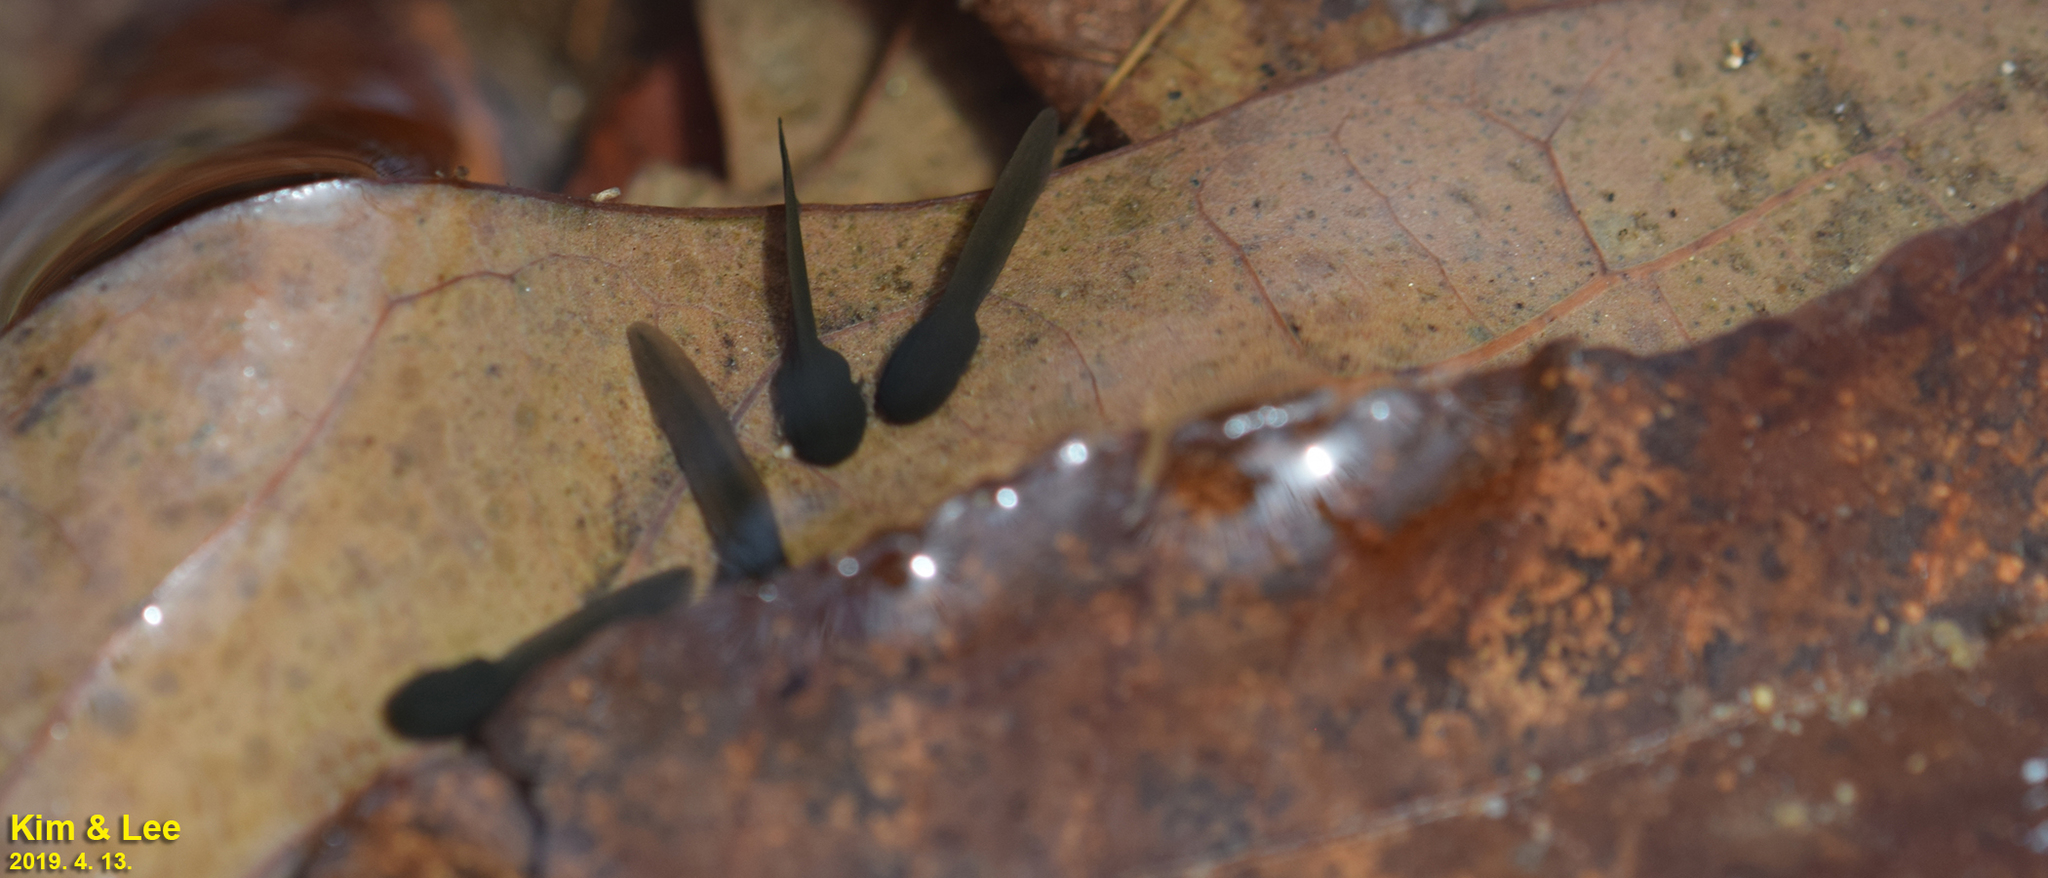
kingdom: Animalia
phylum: Chordata
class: Amphibia
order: Anura
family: Ranidae
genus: Rana
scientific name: Rana huanrenensis
